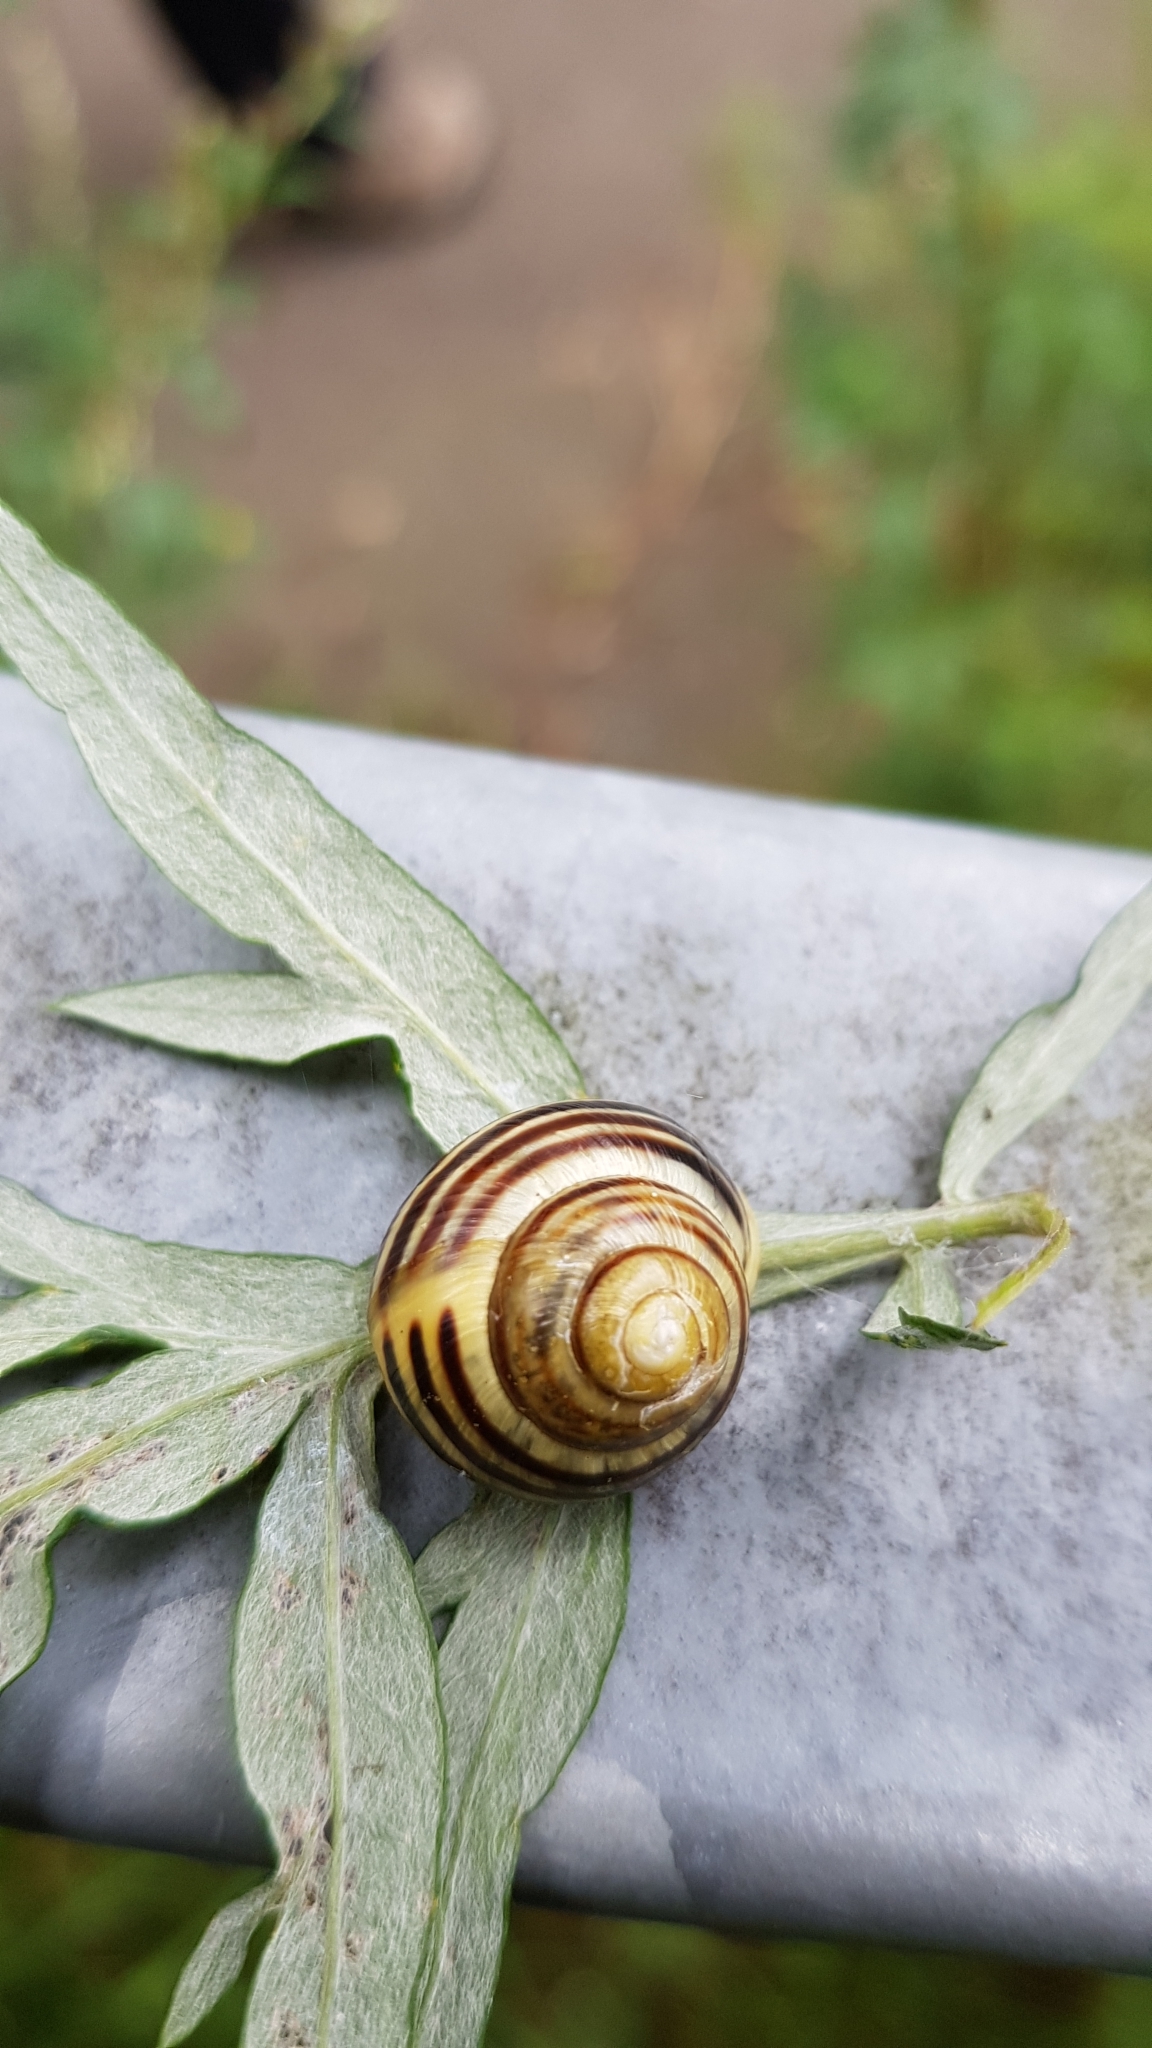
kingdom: Animalia
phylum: Mollusca
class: Gastropoda
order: Stylommatophora
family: Helicidae
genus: Cepaea
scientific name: Cepaea nemoralis
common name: Grovesnail
